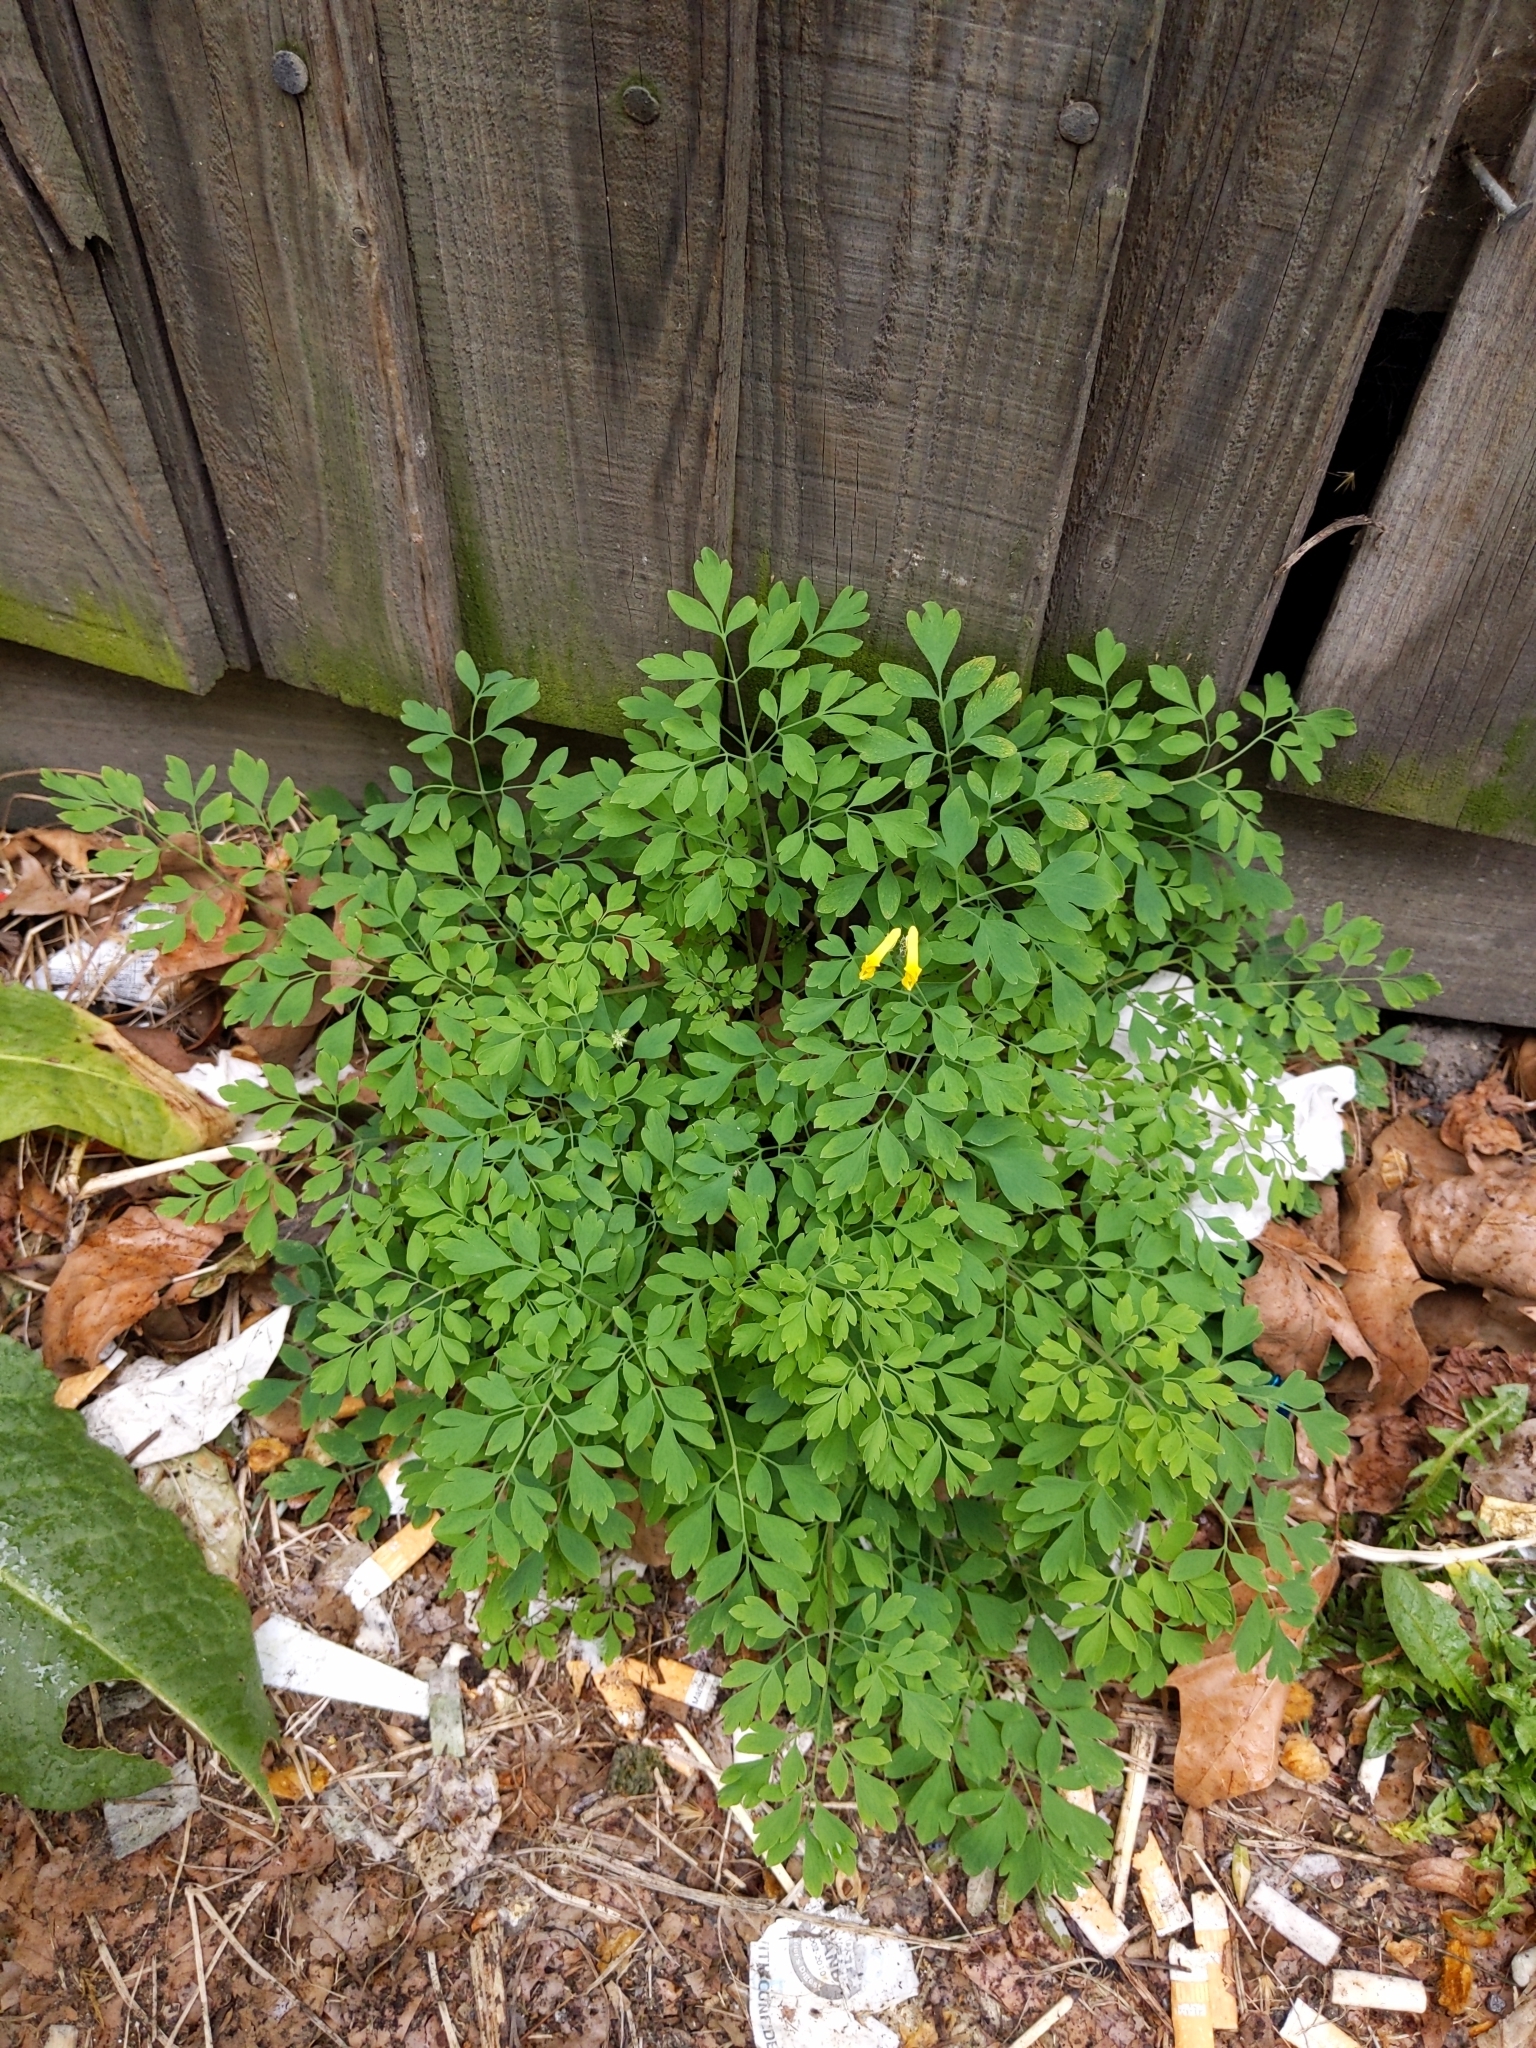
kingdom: Plantae
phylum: Tracheophyta
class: Magnoliopsida
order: Ranunculales
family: Papaveraceae
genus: Pseudofumaria
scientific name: Pseudofumaria lutea
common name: Yellow corydalis
